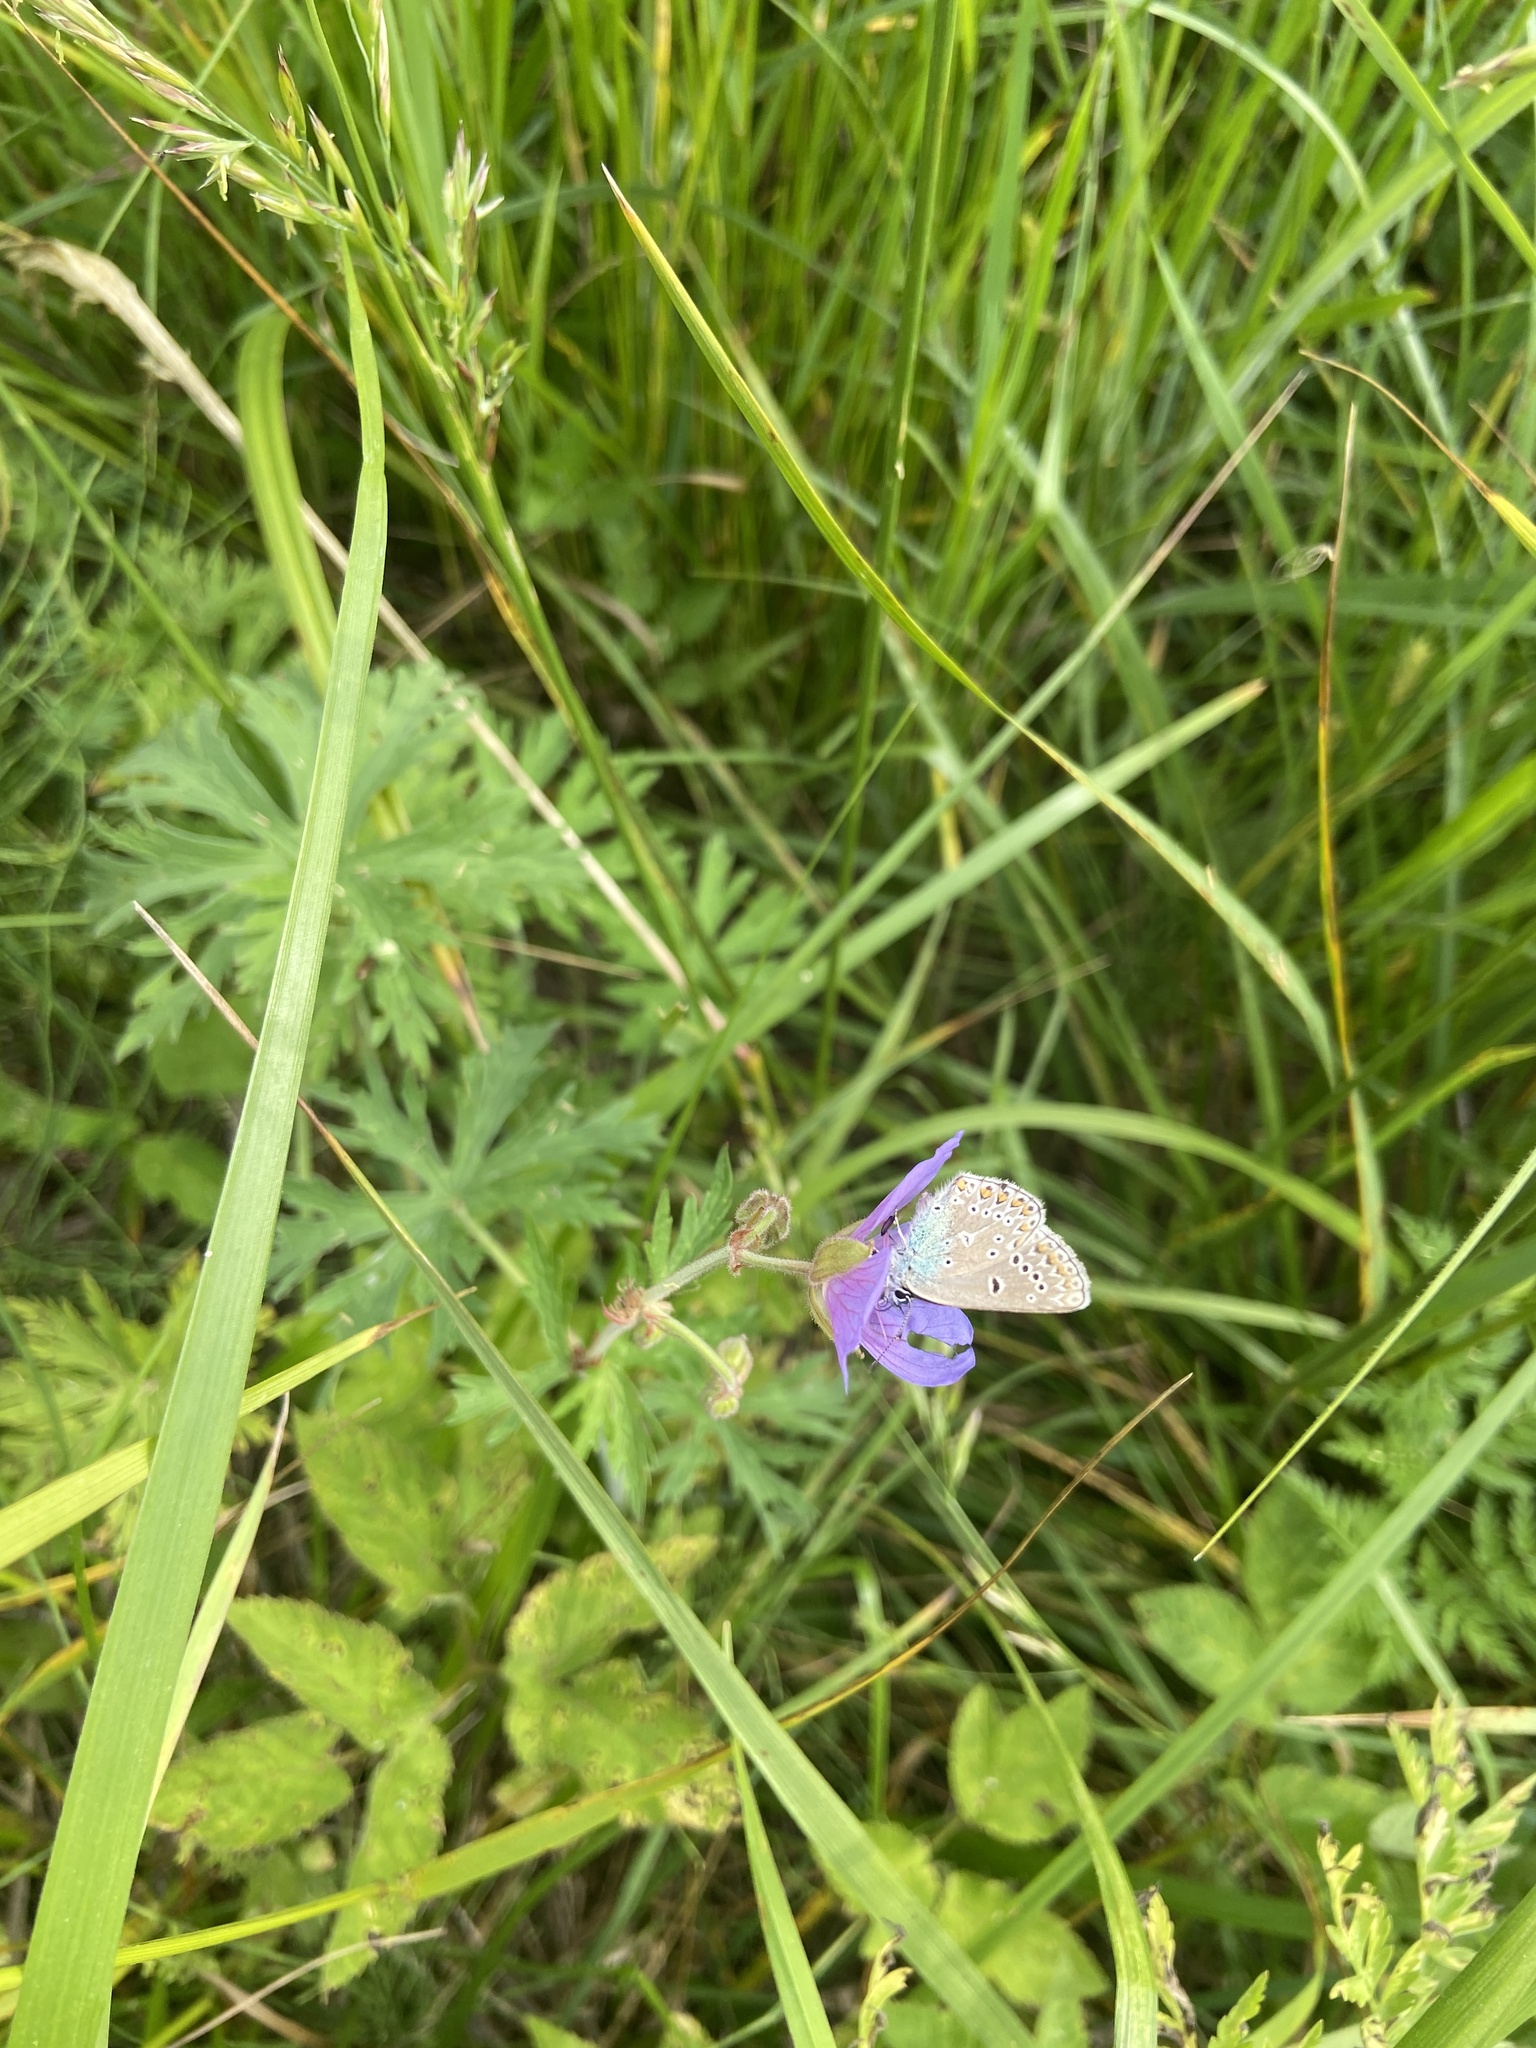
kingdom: Animalia
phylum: Arthropoda
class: Insecta
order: Lepidoptera
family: Lycaenidae
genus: Eumedonia
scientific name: Eumedonia eumedon
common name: Geranium argus
